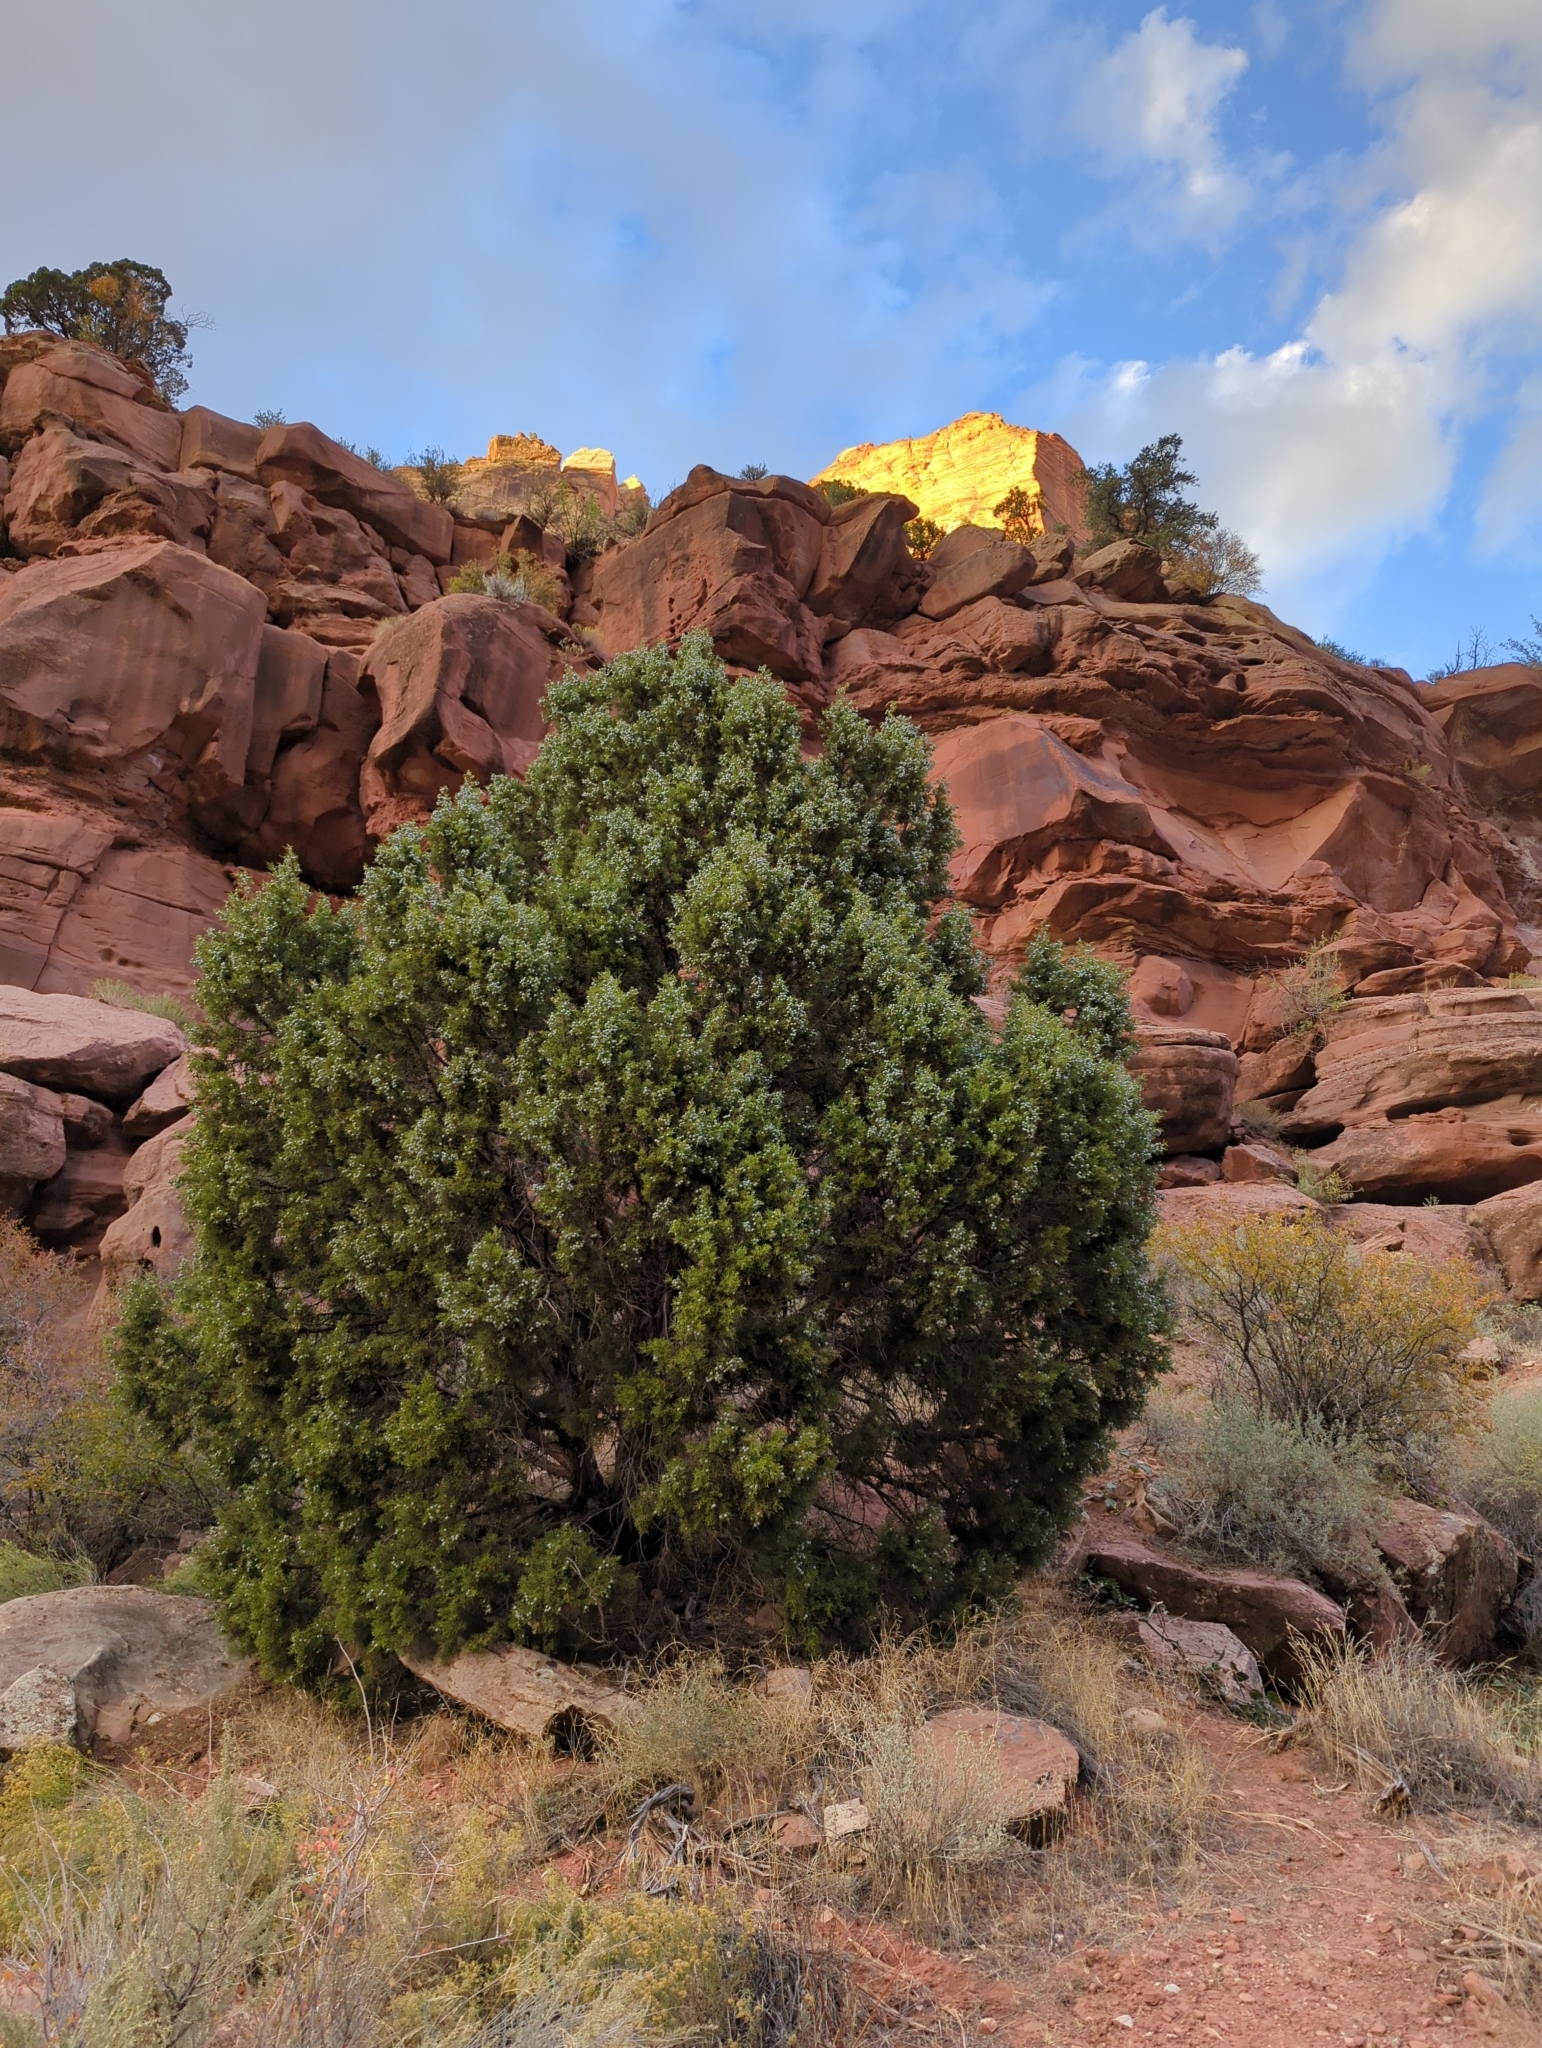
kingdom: Plantae
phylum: Tracheophyta
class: Pinopsida
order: Pinales
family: Cupressaceae
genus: Juniperus
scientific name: Juniperus osteosperma
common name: Utah juniper
